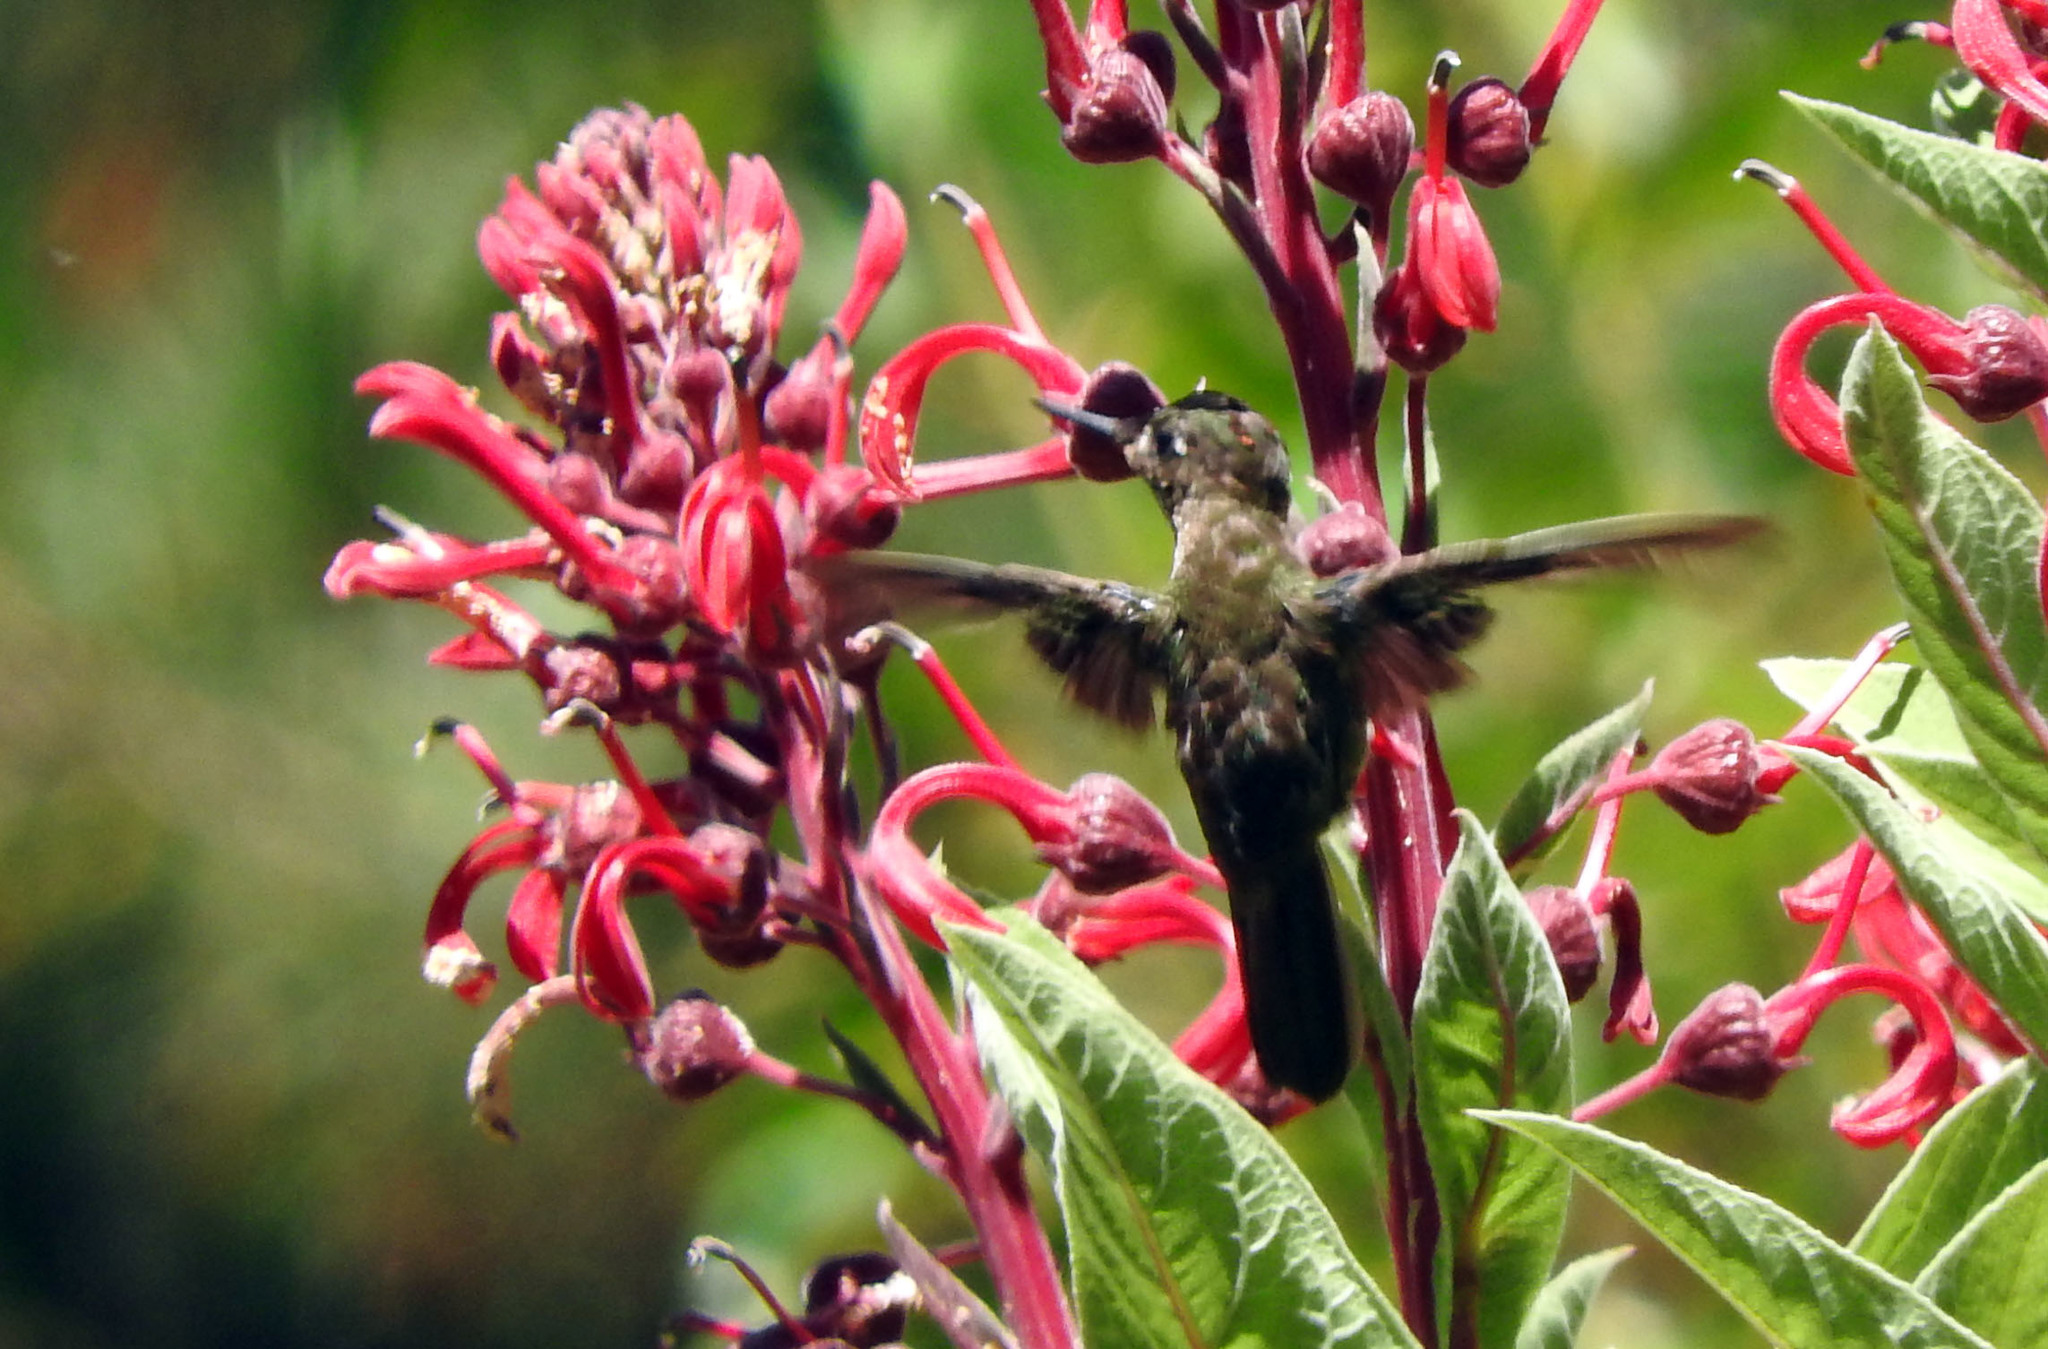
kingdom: Animalia
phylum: Chordata
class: Aves
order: Apodiformes
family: Trochilidae
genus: Sephanoides
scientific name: Sephanoides sephaniodes
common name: Green-backed firecrown
